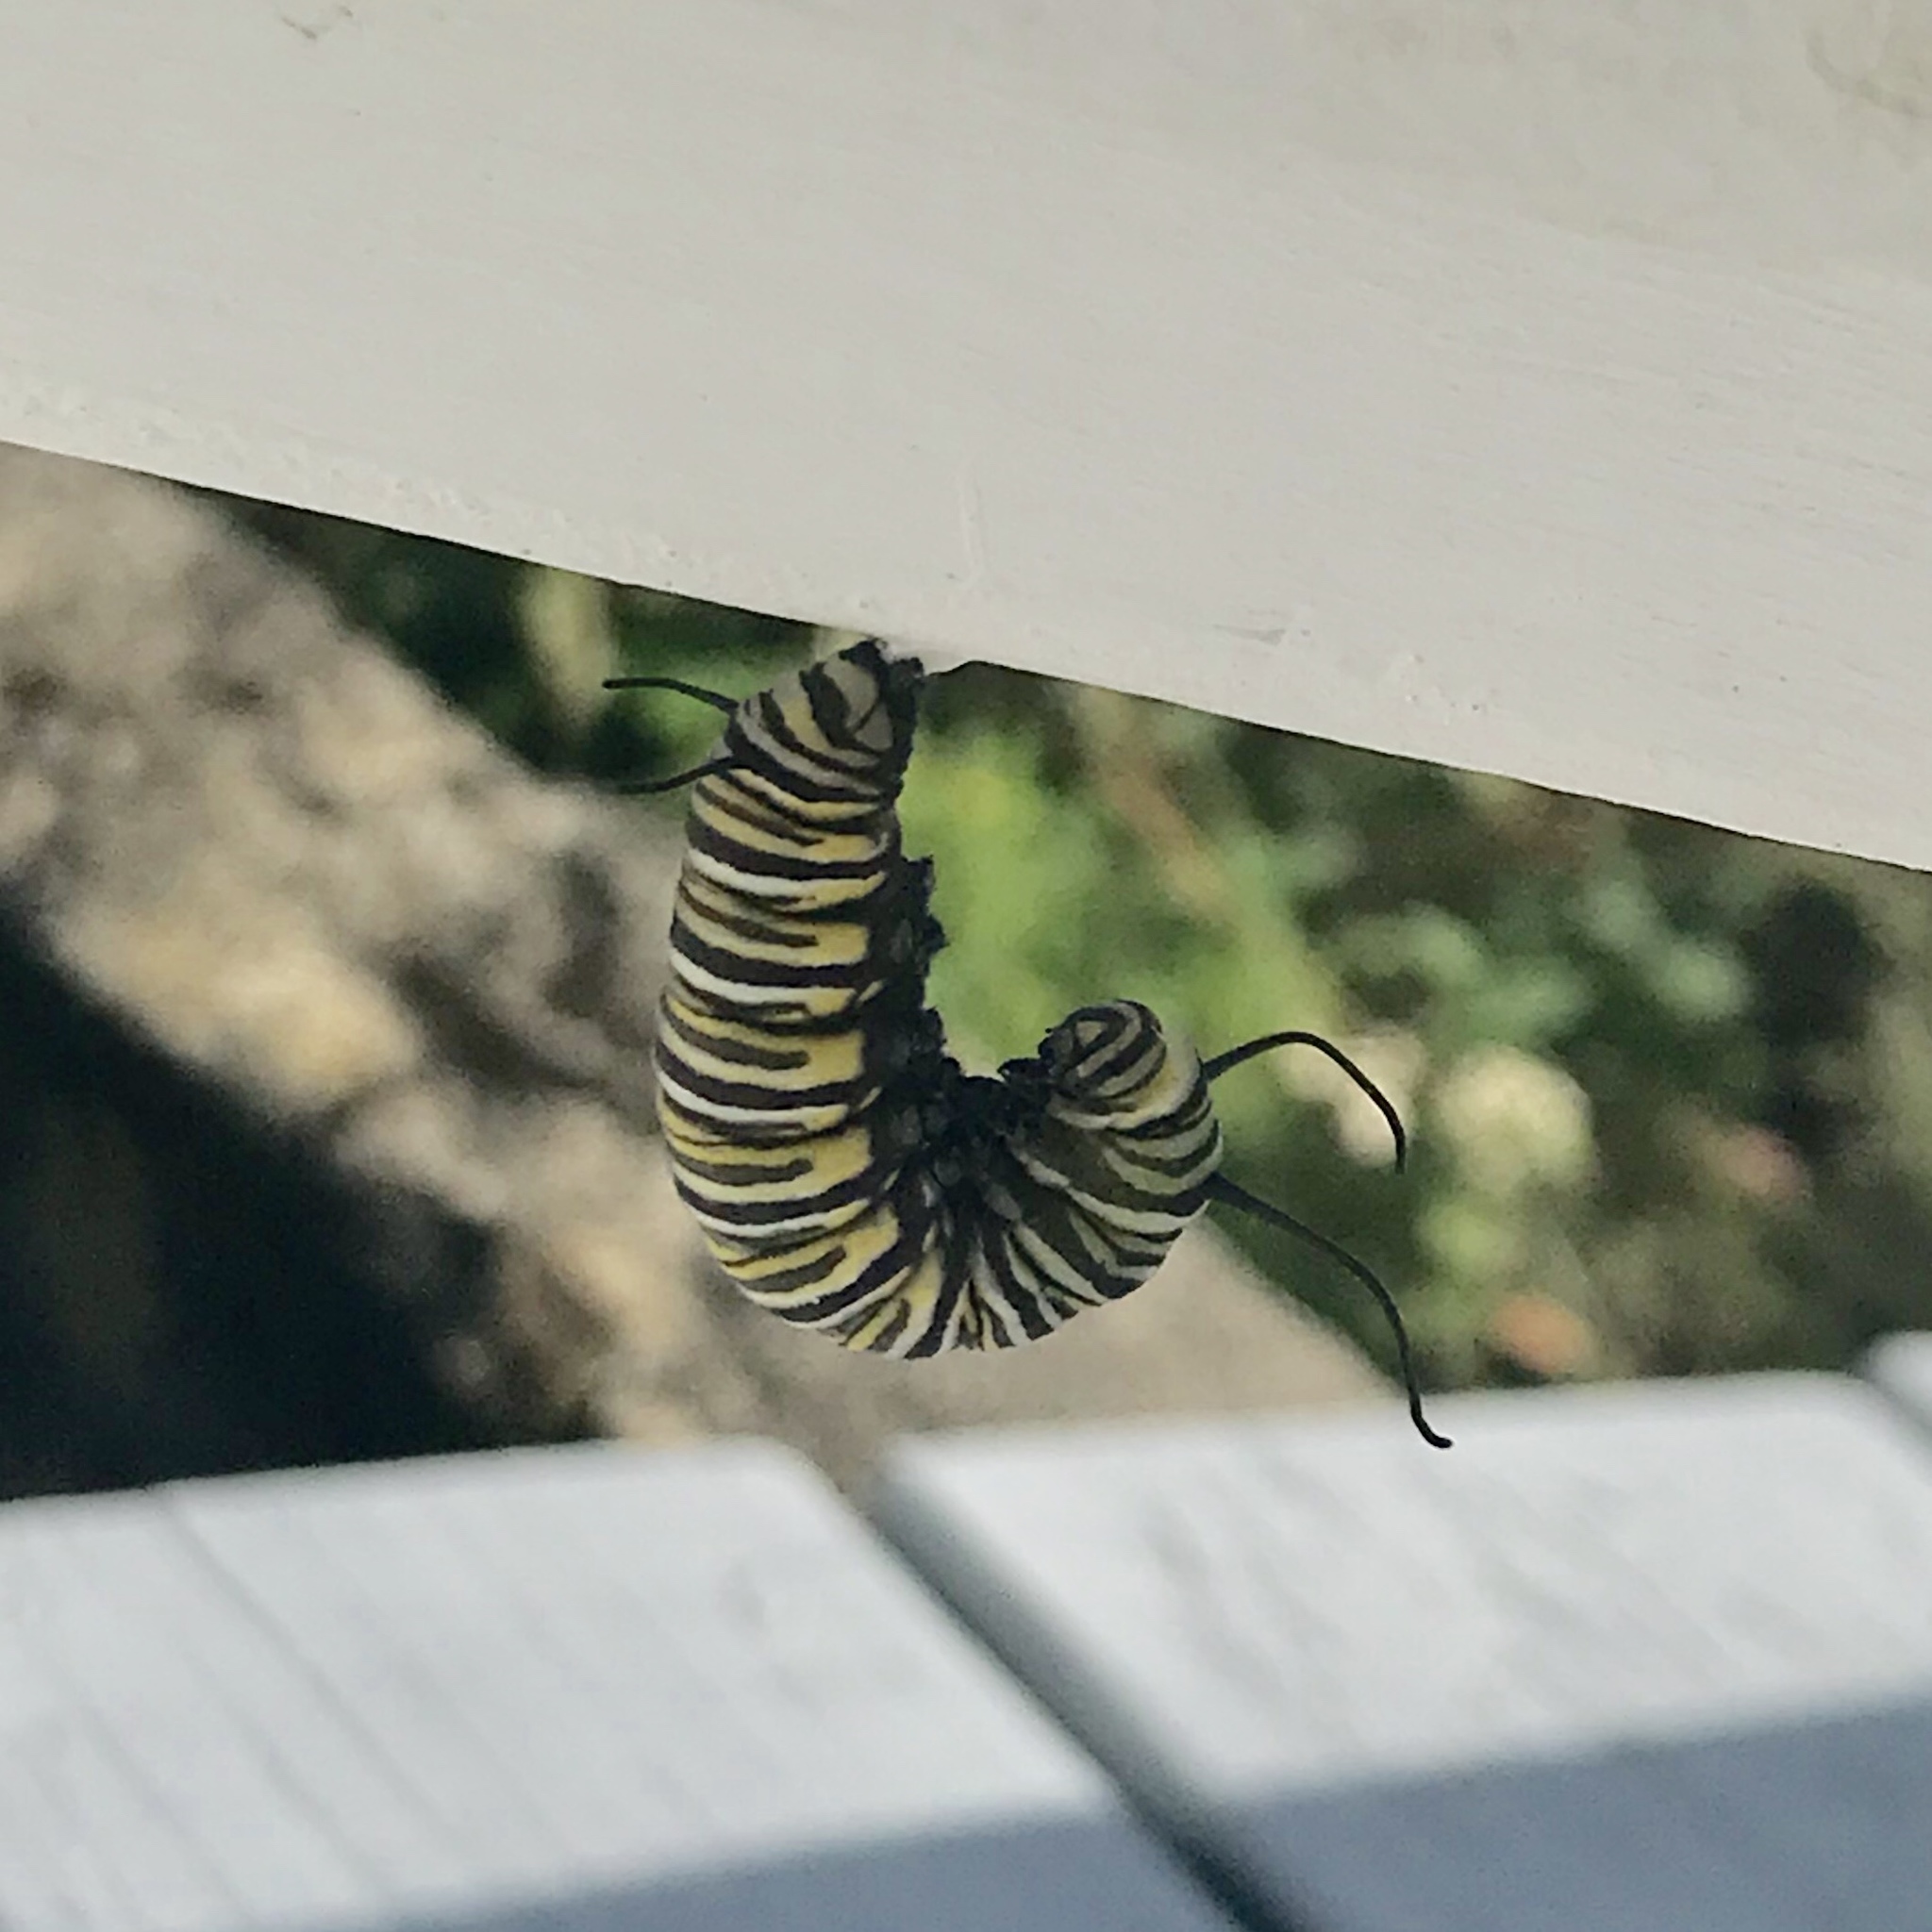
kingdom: Animalia
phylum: Arthropoda
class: Insecta
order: Lepidoptera
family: Nymphalidae
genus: Danaus
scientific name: Danaus plexippus
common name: Monarch
